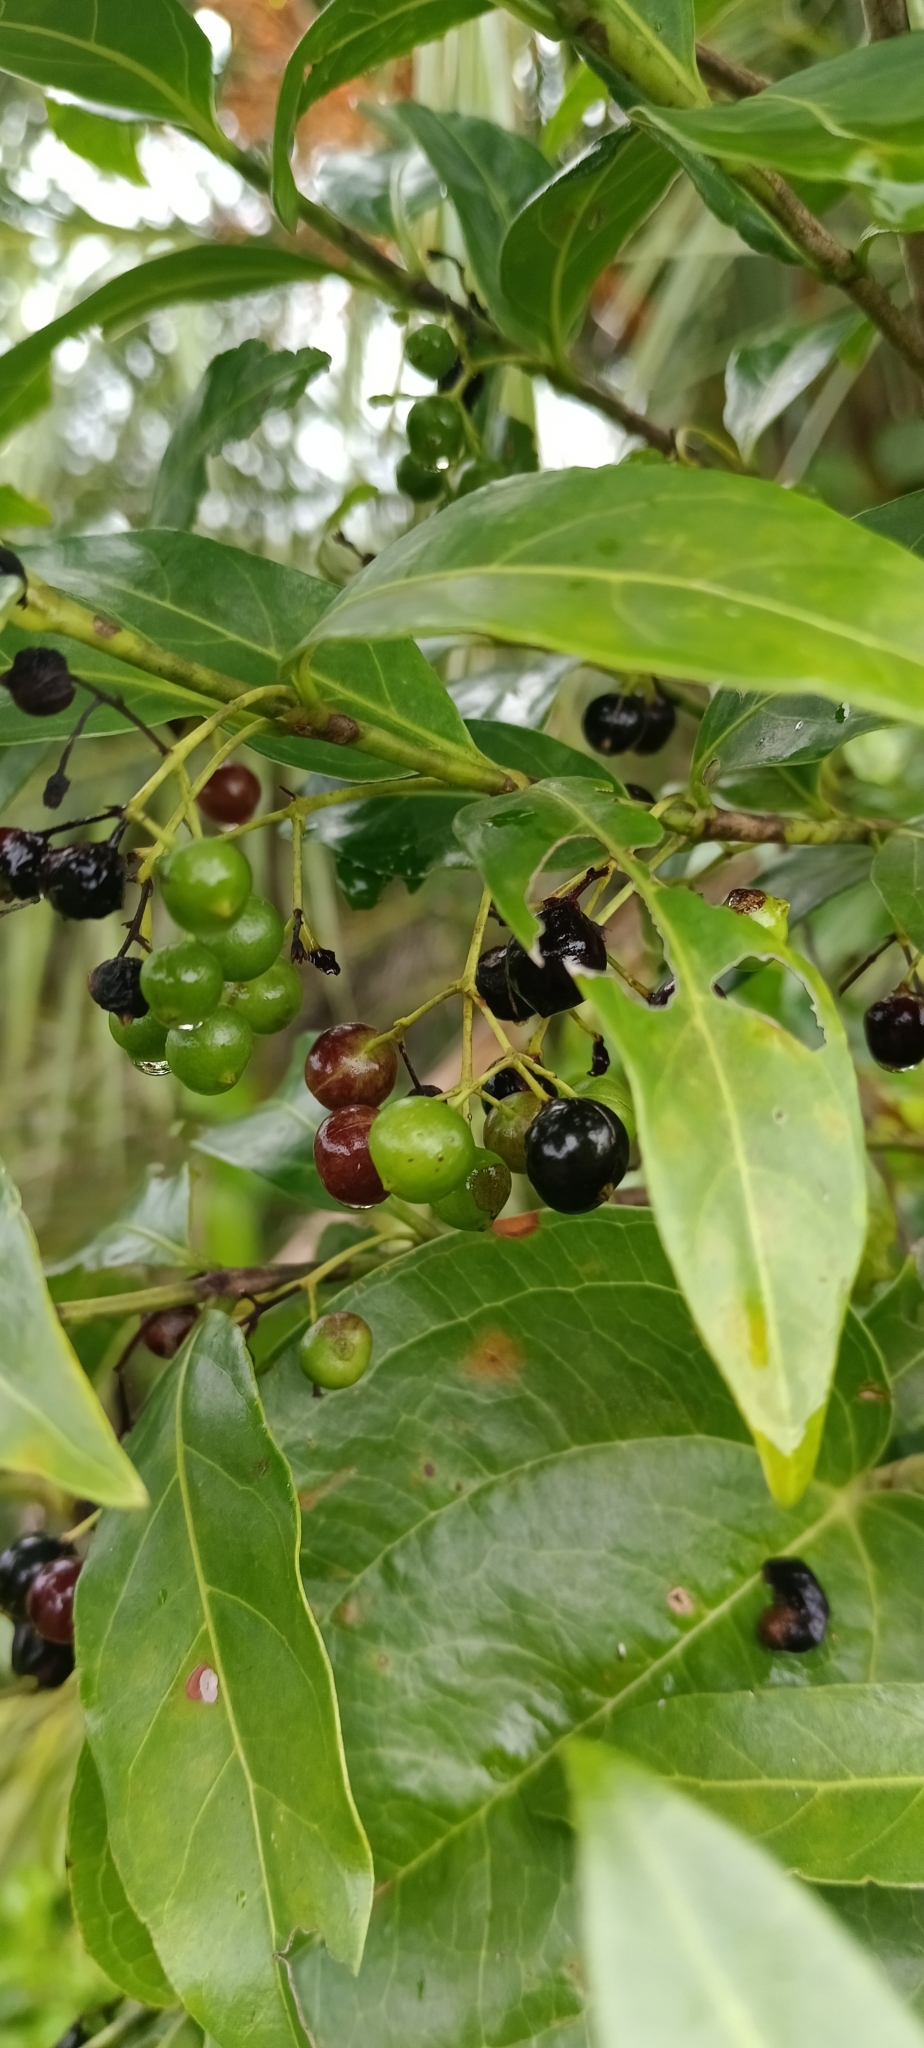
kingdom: Plantae
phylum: Tracheophyta
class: Magnoliopsida
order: Gentianales
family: Rubiaceae
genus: Kraussia
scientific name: Kraussia floribunda
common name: Rhino-coffee
